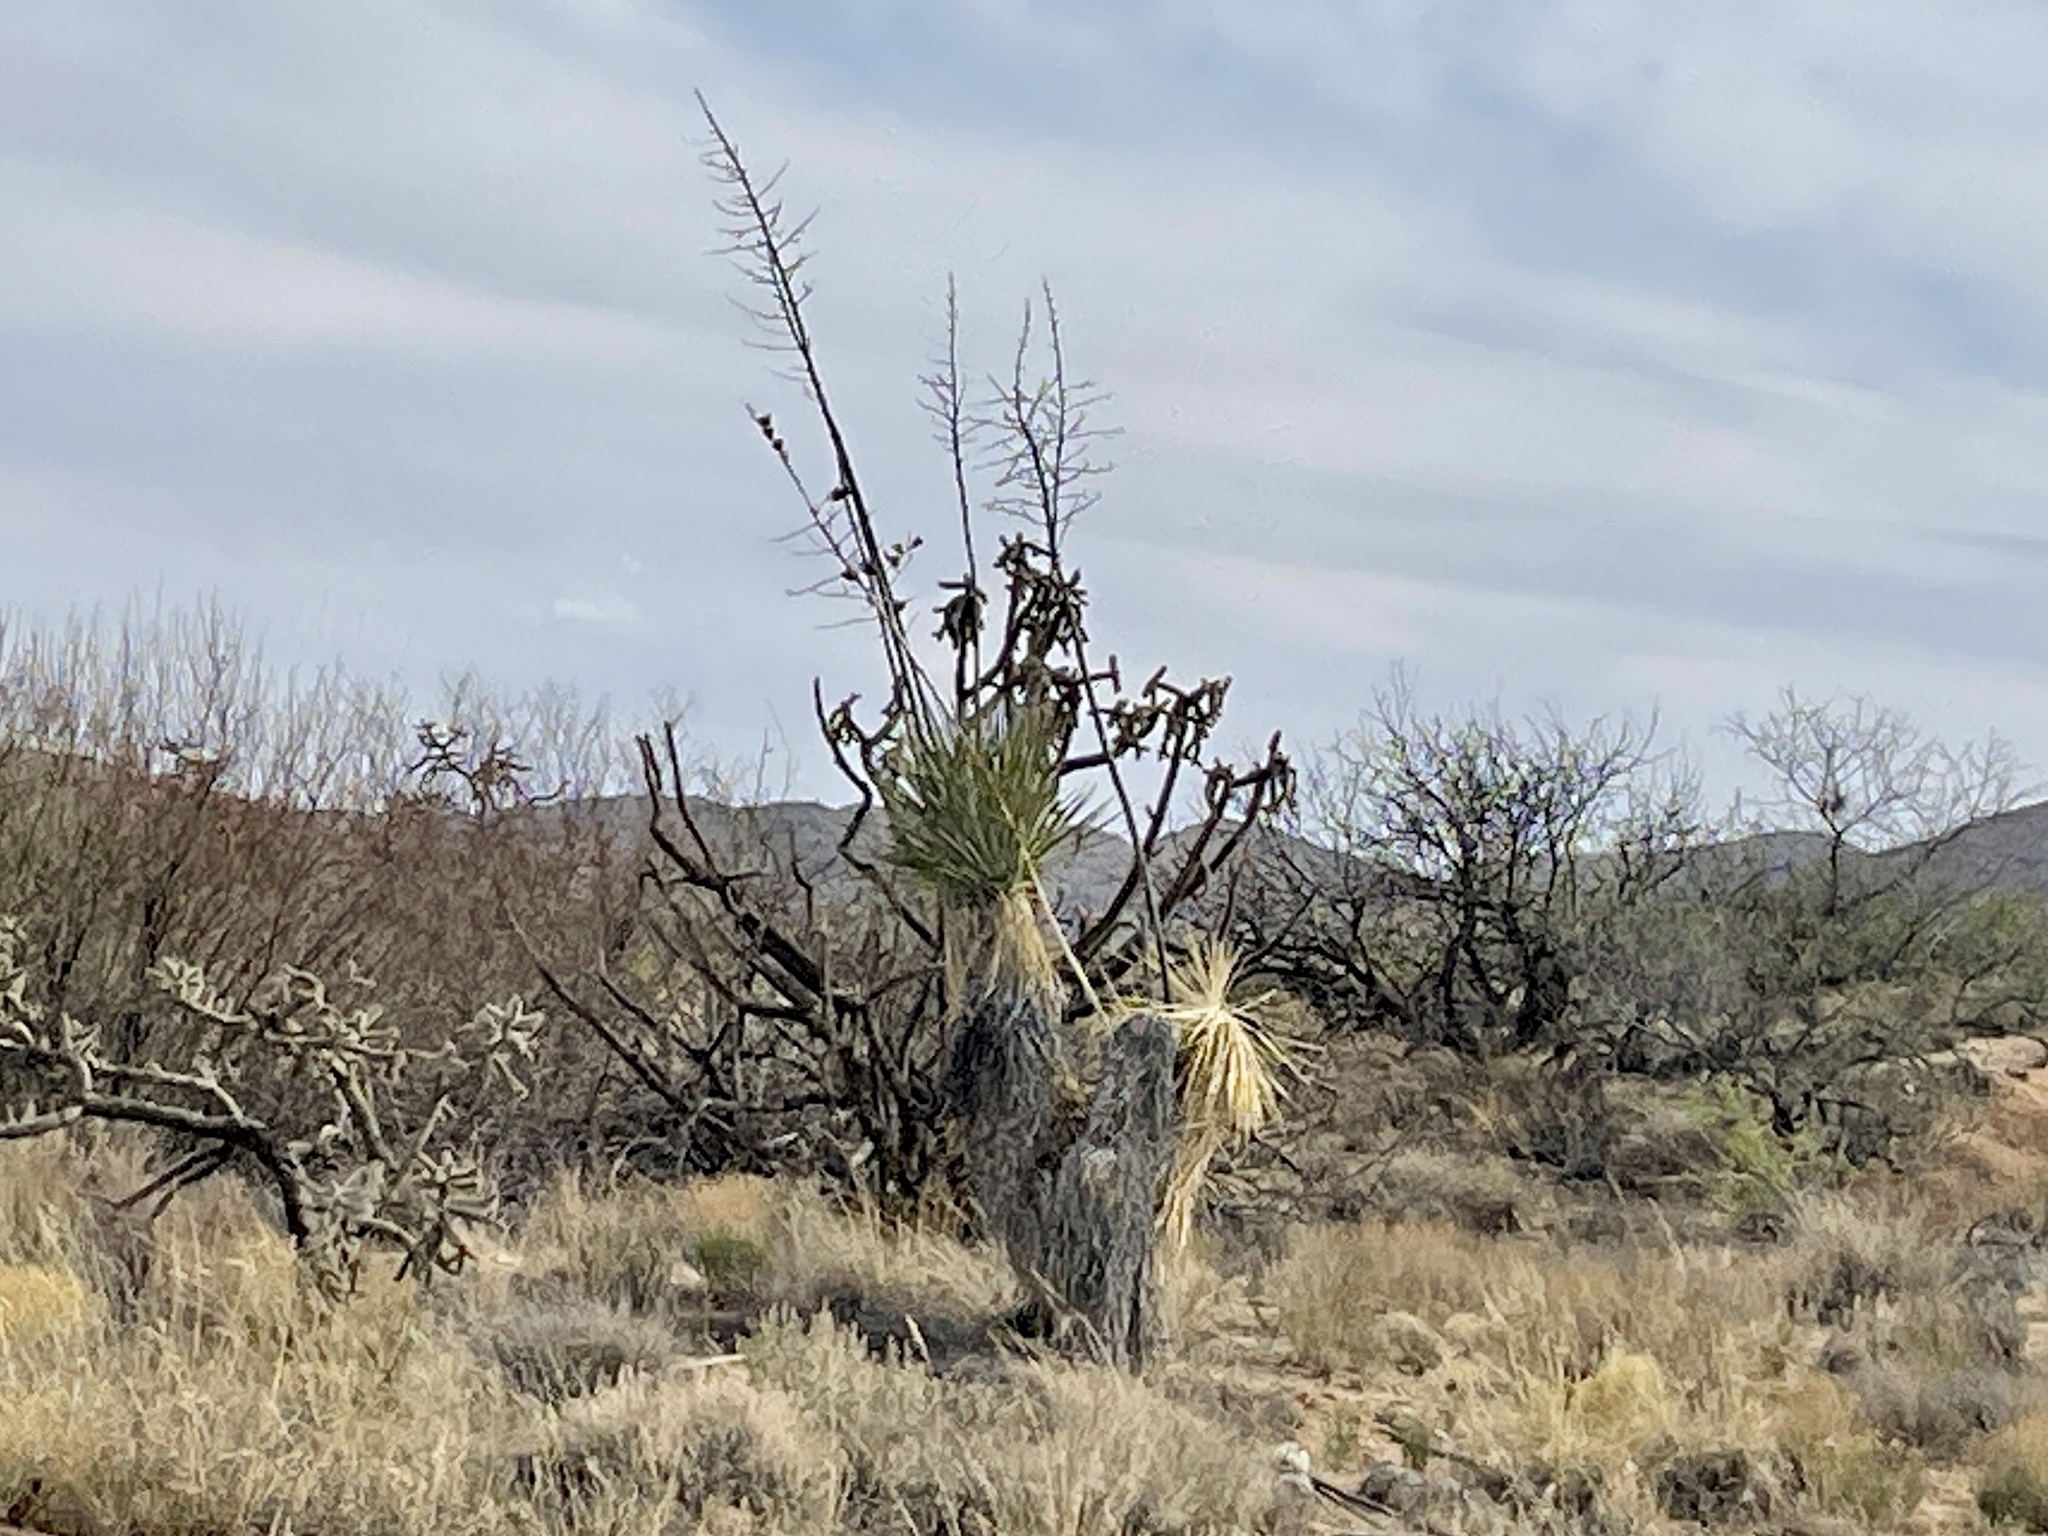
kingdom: Plantae
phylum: Tracheophyta
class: Liliopsida
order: Asparagales
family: Asparagaceae
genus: Yucca
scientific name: Yucca elata
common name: Palmella
